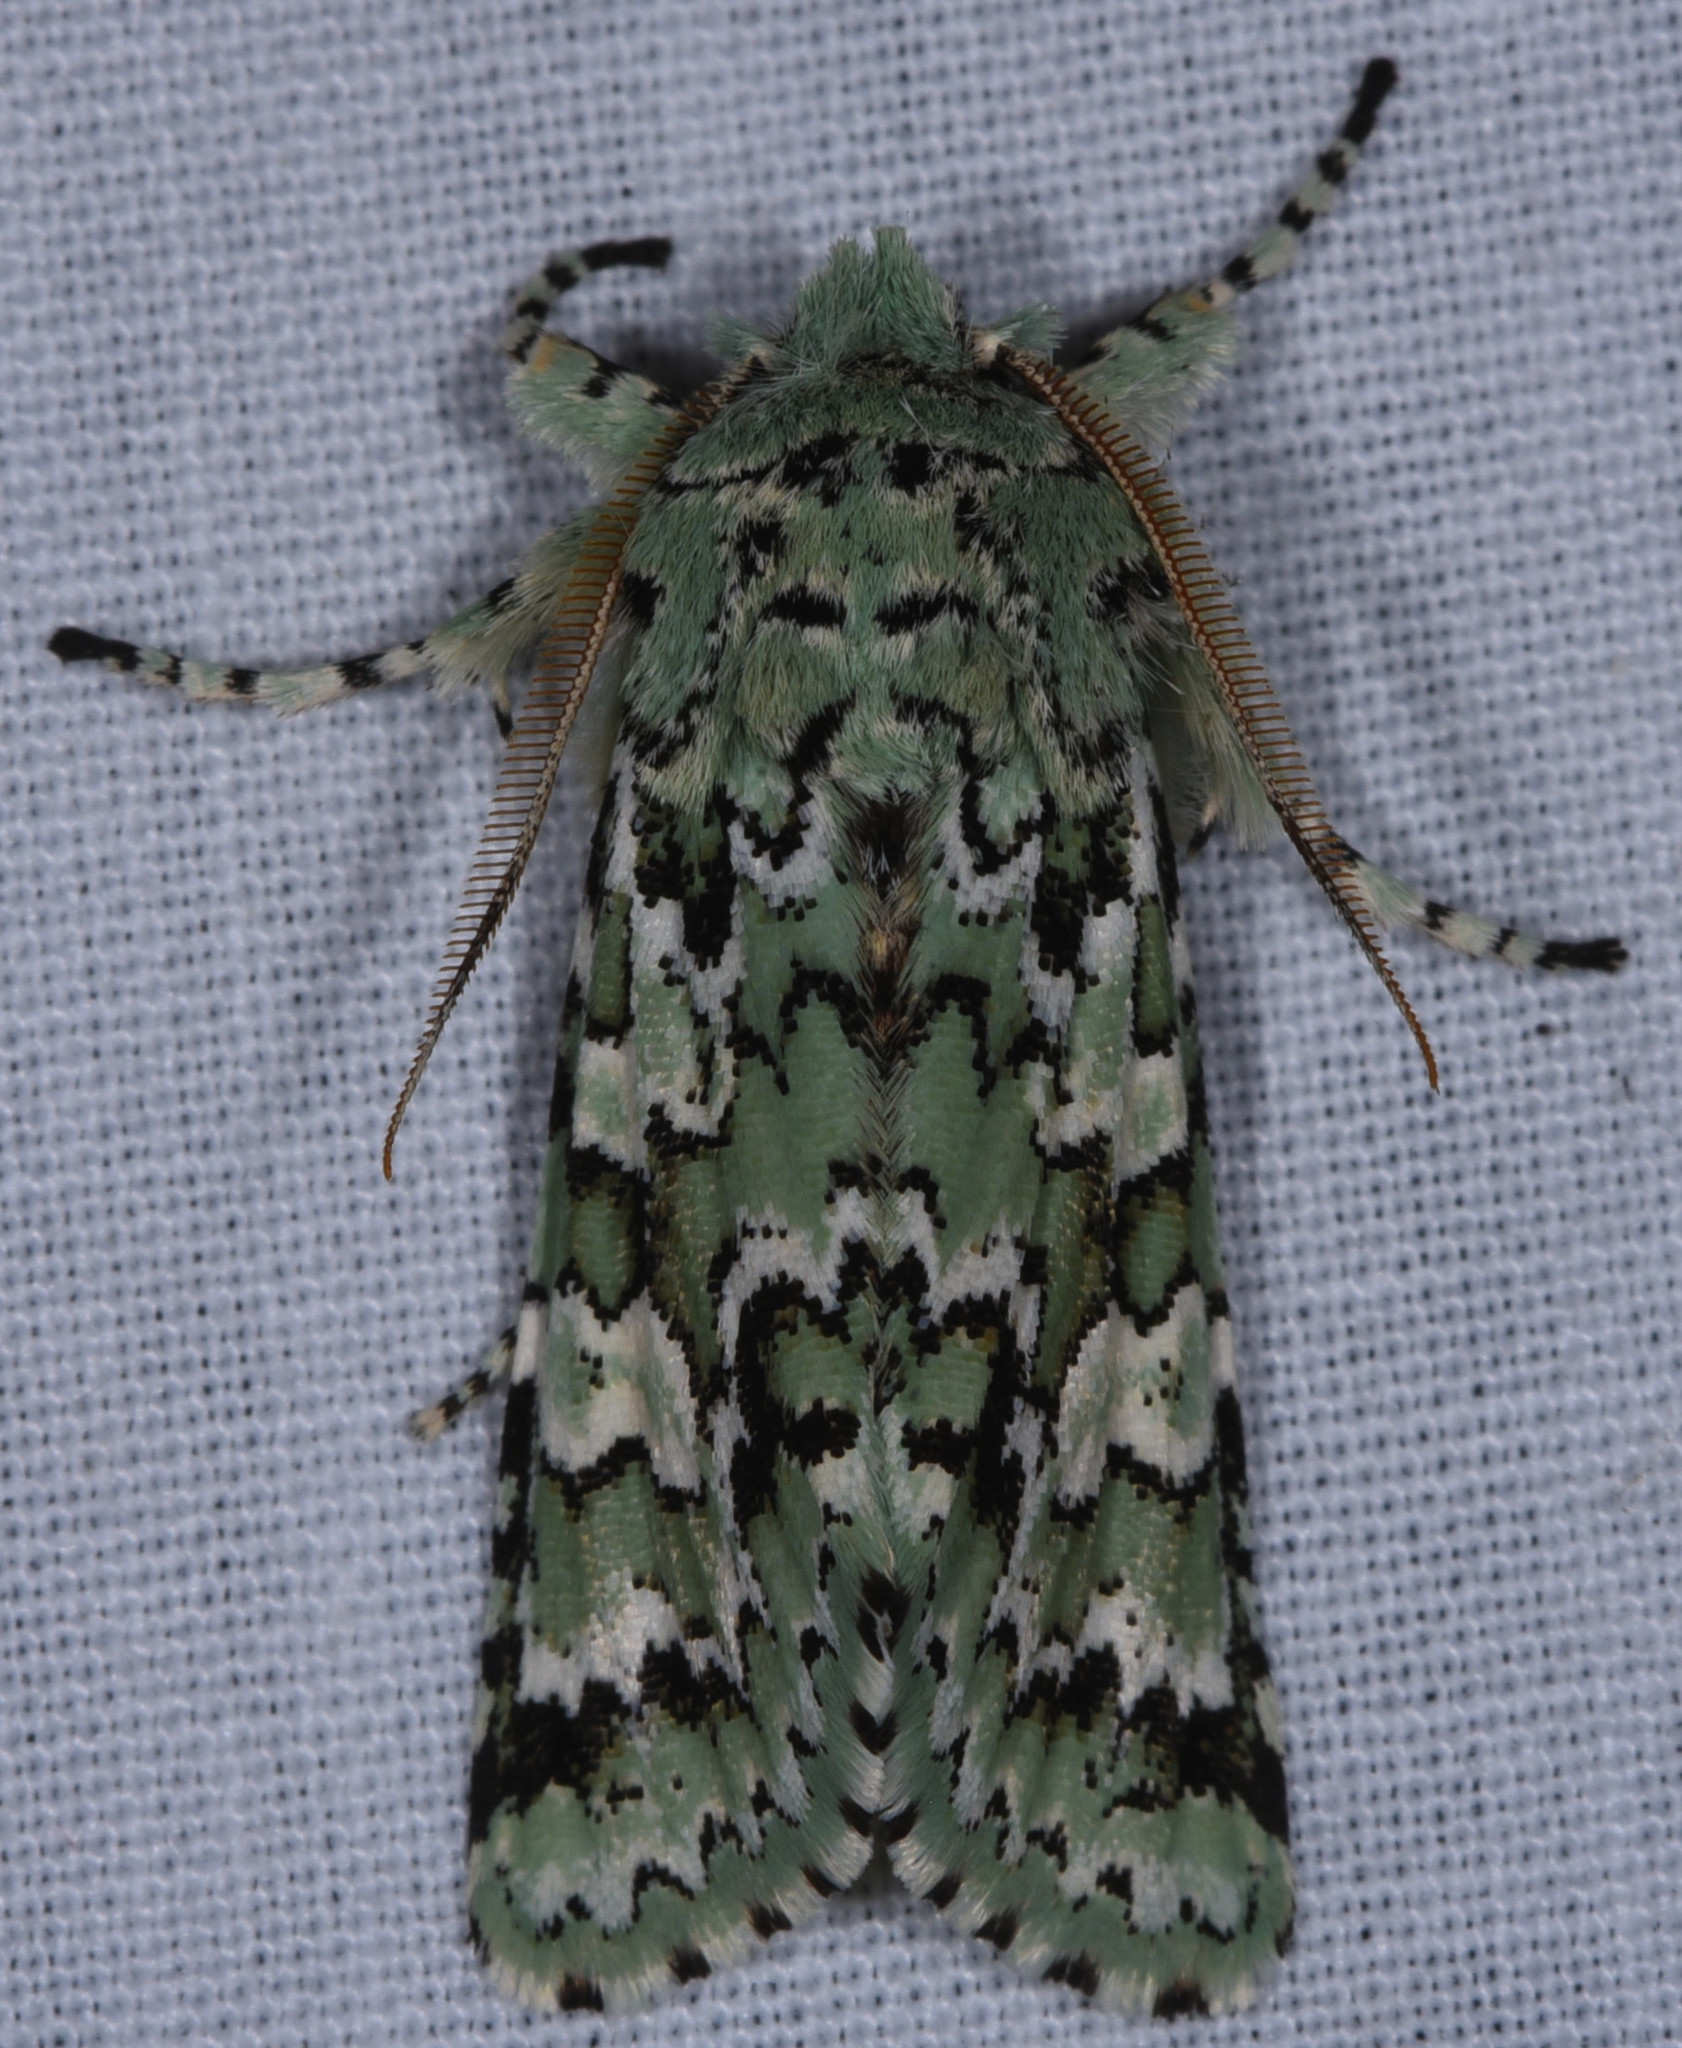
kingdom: Animalia
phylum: Arthropoda
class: Insecta
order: Lepidoptera
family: Noctuidae
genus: Feralia
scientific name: Feralia februalis
